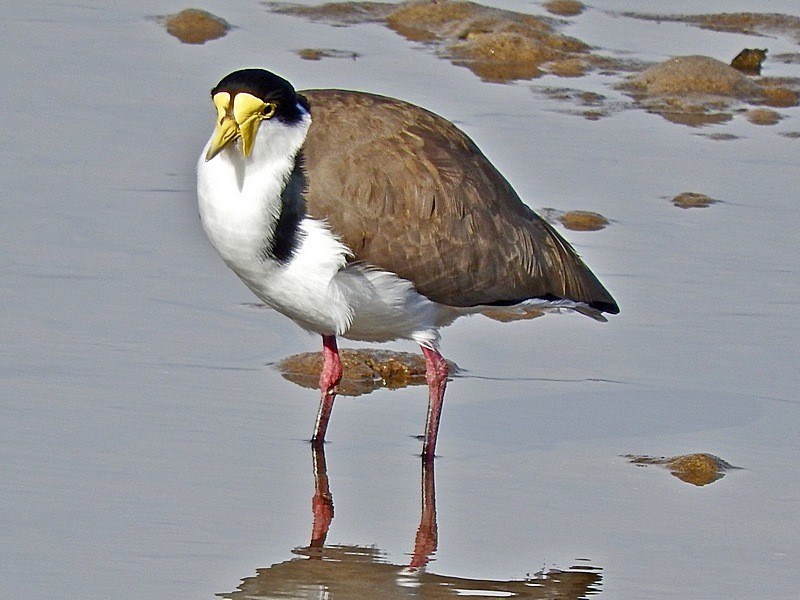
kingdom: Animalia
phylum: Chordata
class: Aves
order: Charadriiformes
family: Charadriidae
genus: Vanellus
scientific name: Vanellus miles
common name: Masked lapwing
